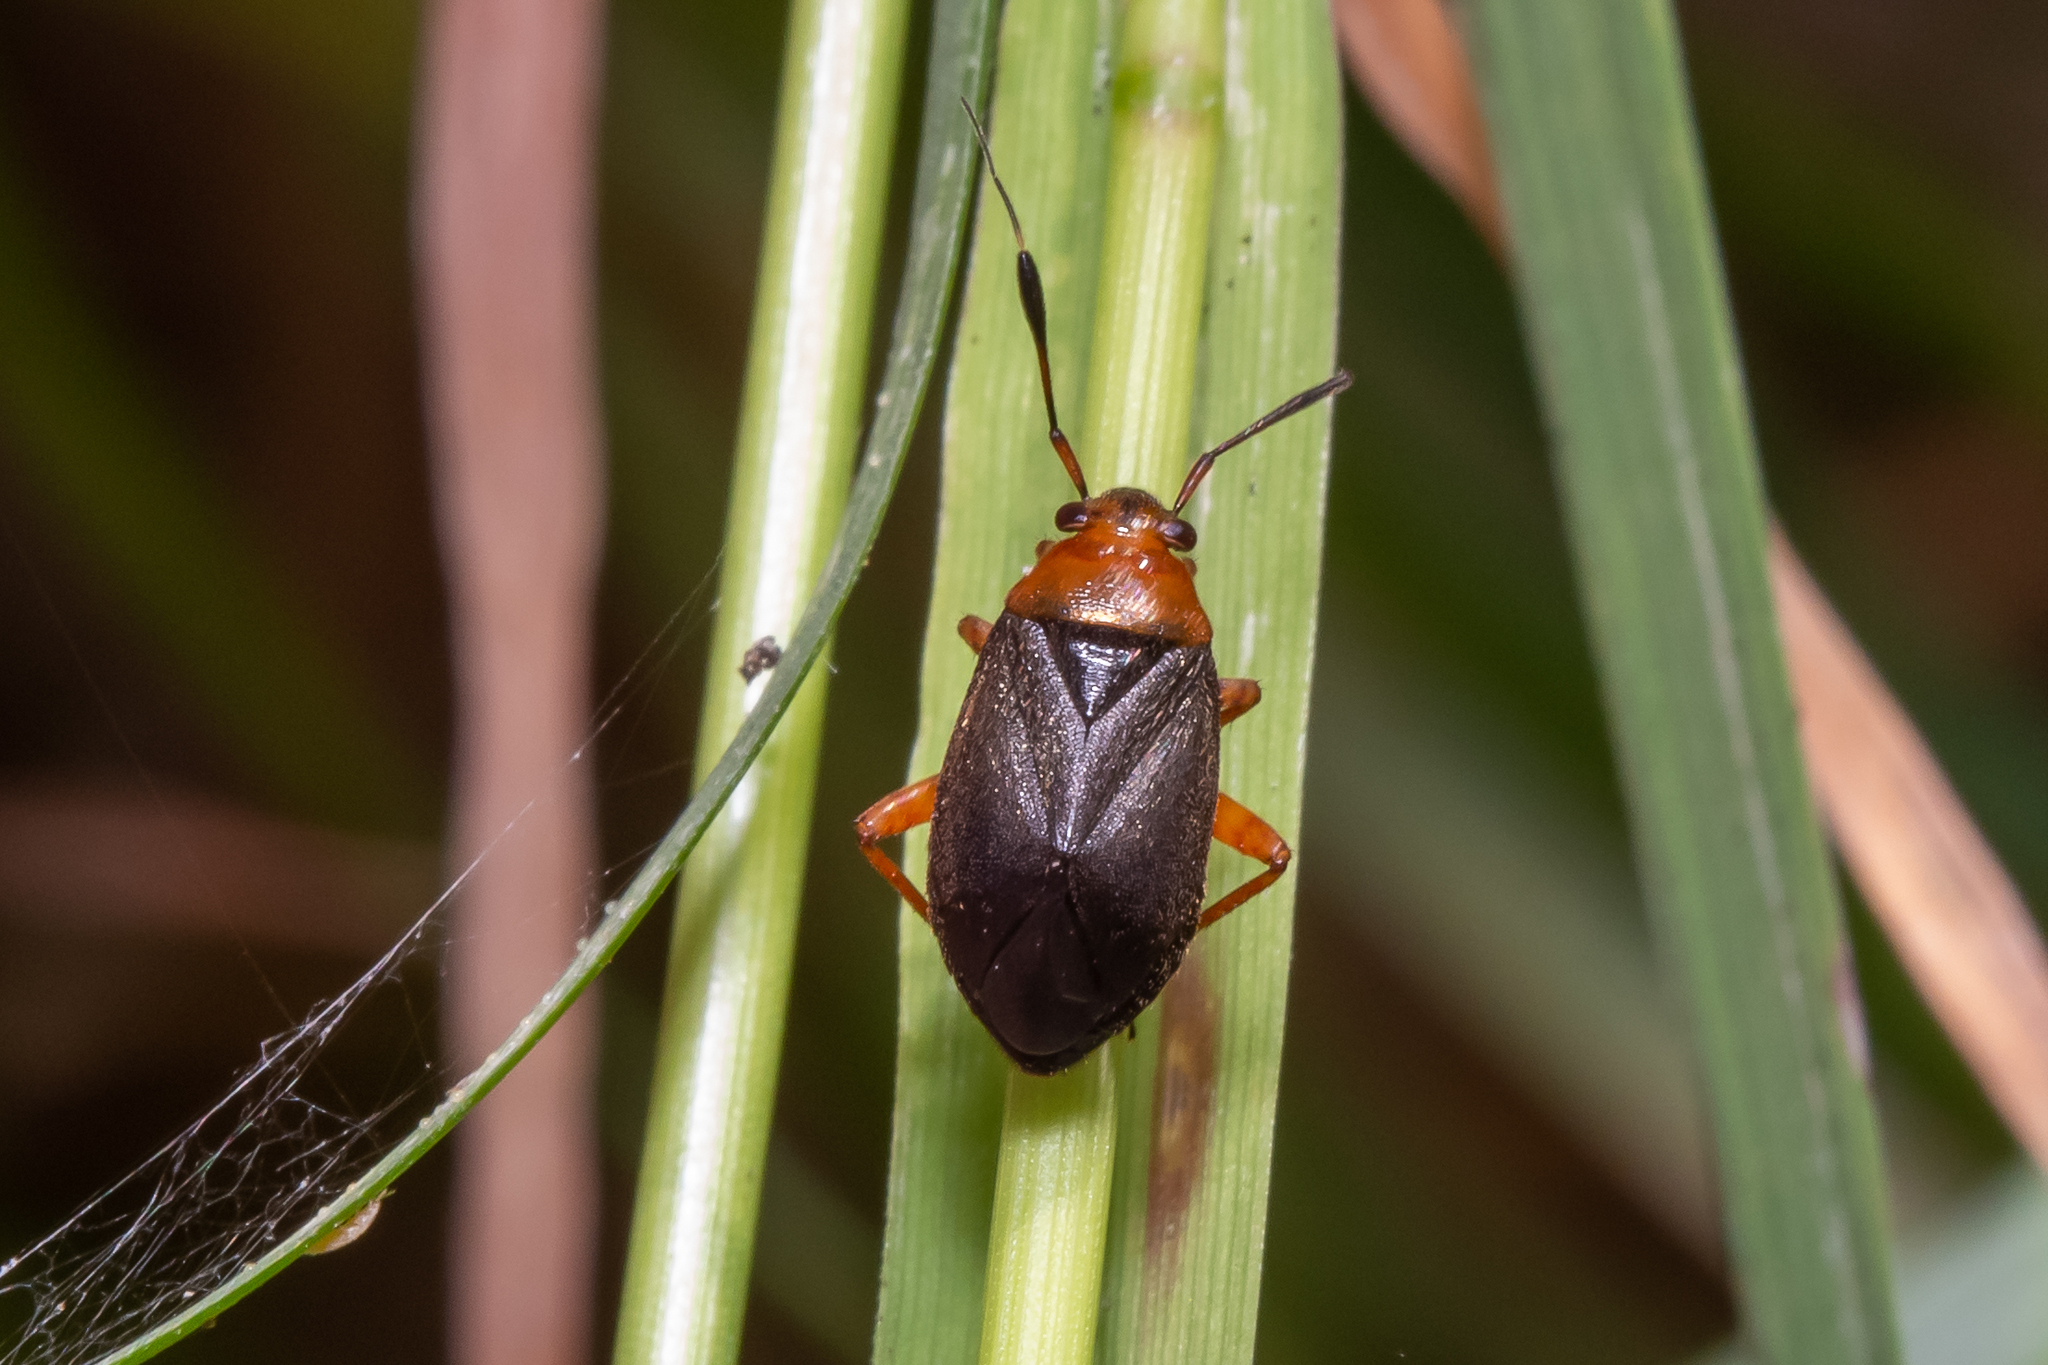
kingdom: Animalia
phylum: Arthropoda
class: Insecta
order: Hemiptera
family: Miridae
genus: Capsus
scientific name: Capsus ater
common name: Black plant bug
